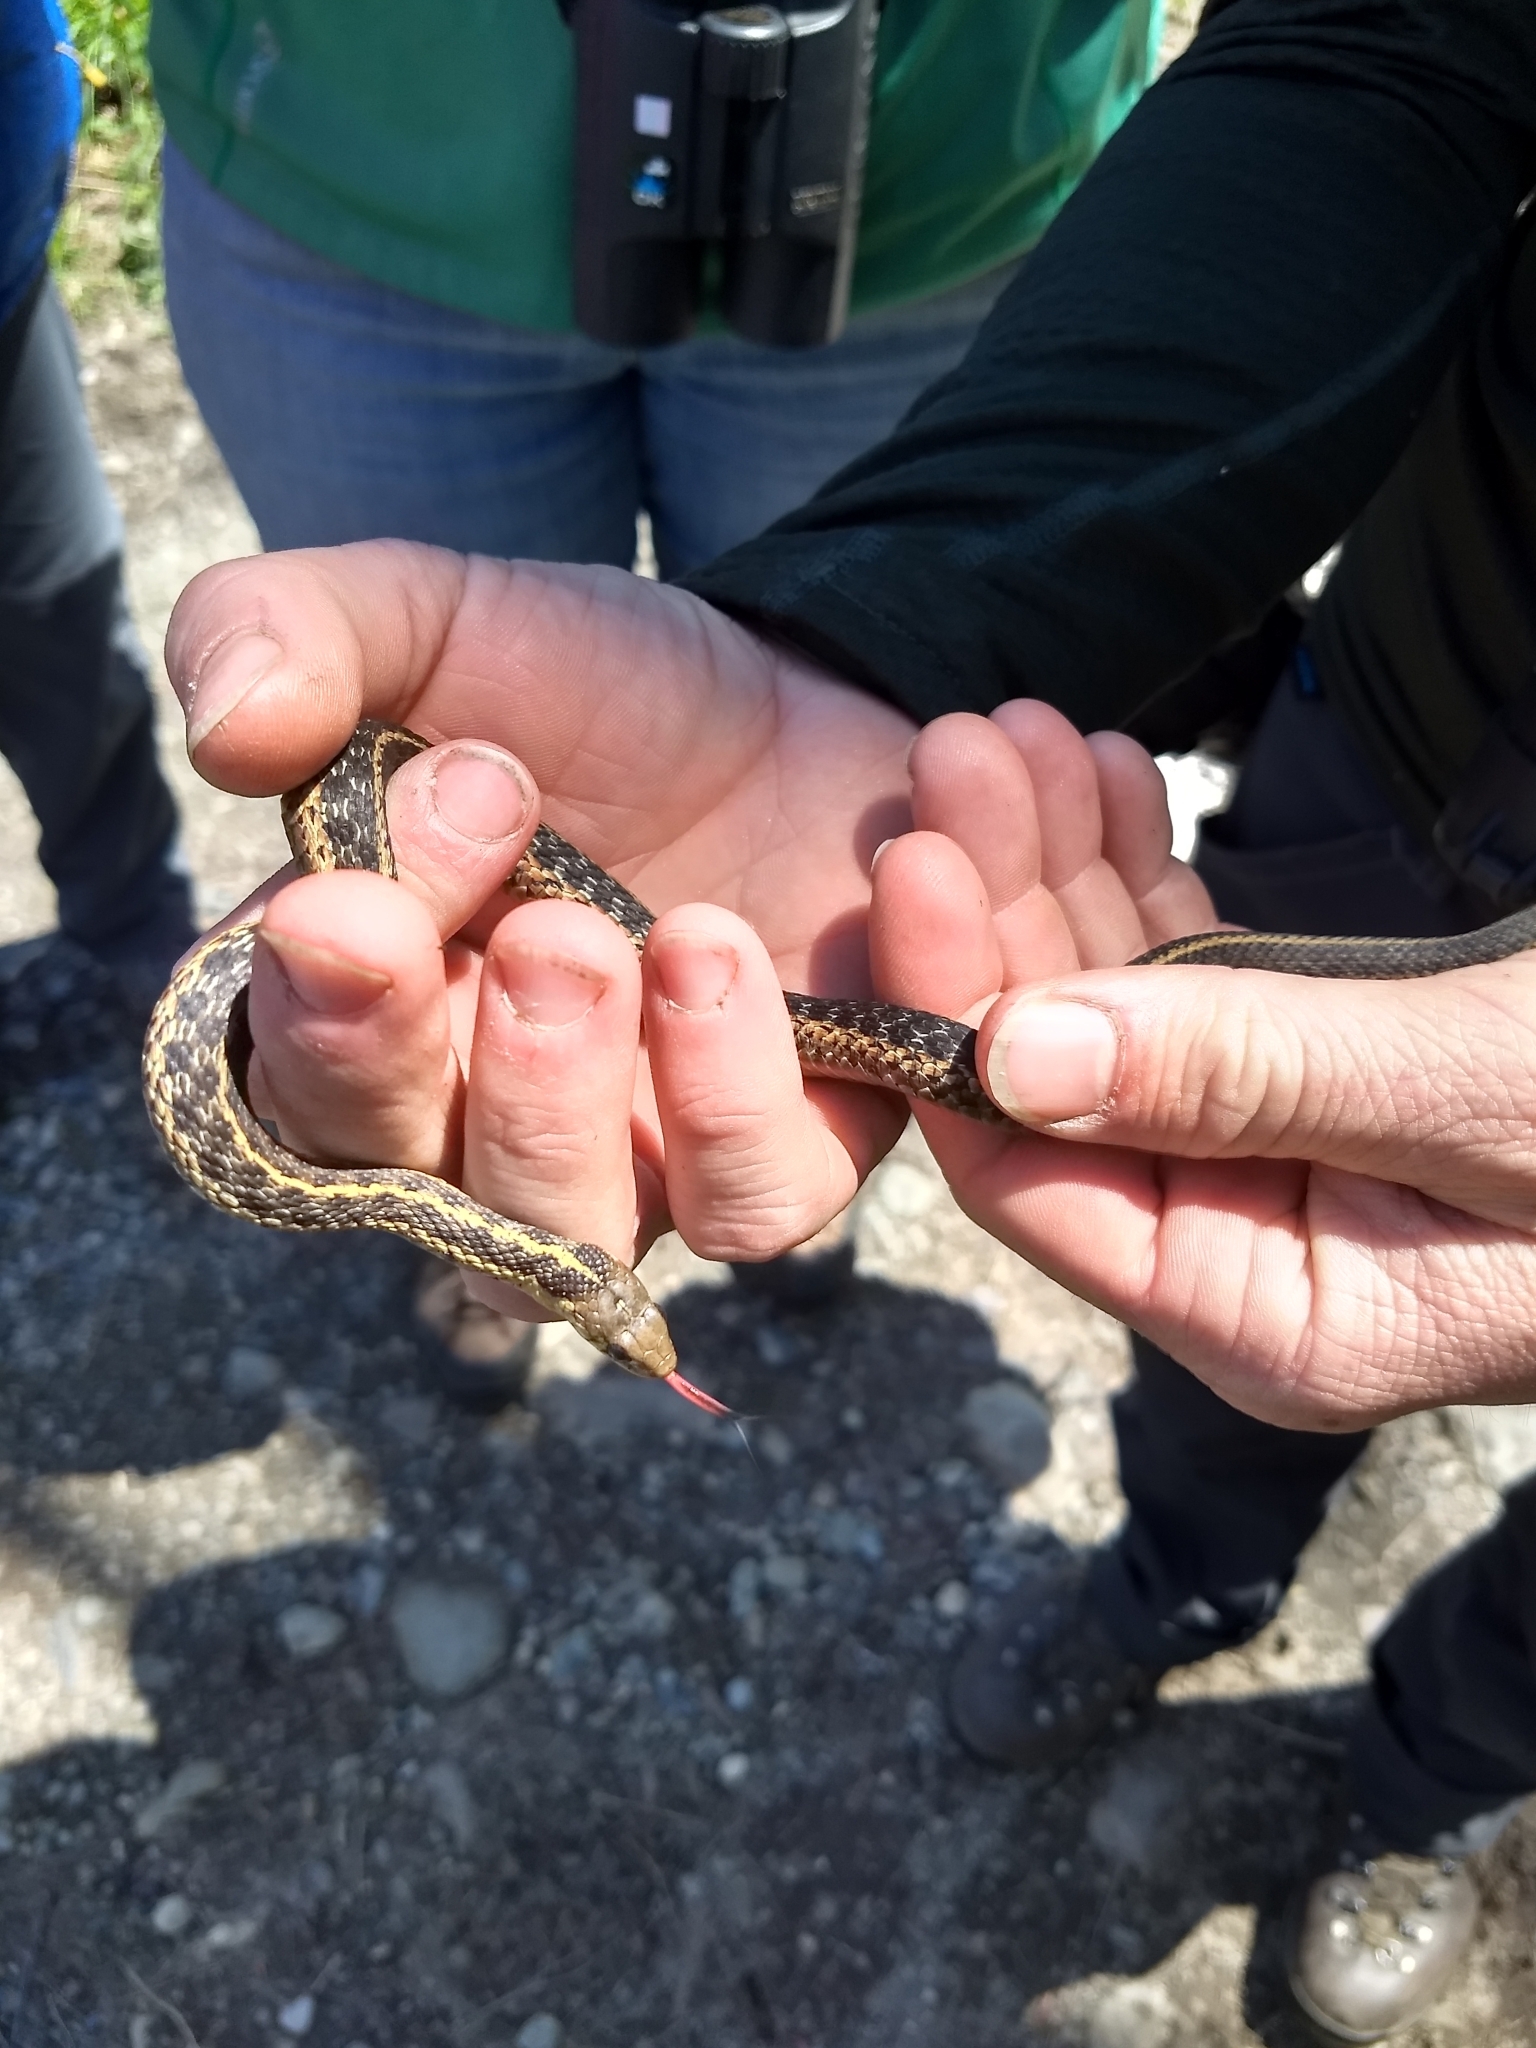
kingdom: Animalia
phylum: Chordata
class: Squamata
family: Colubridae
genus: Thamnophis
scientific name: Thamnophis sirtalis
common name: Common garter snake
